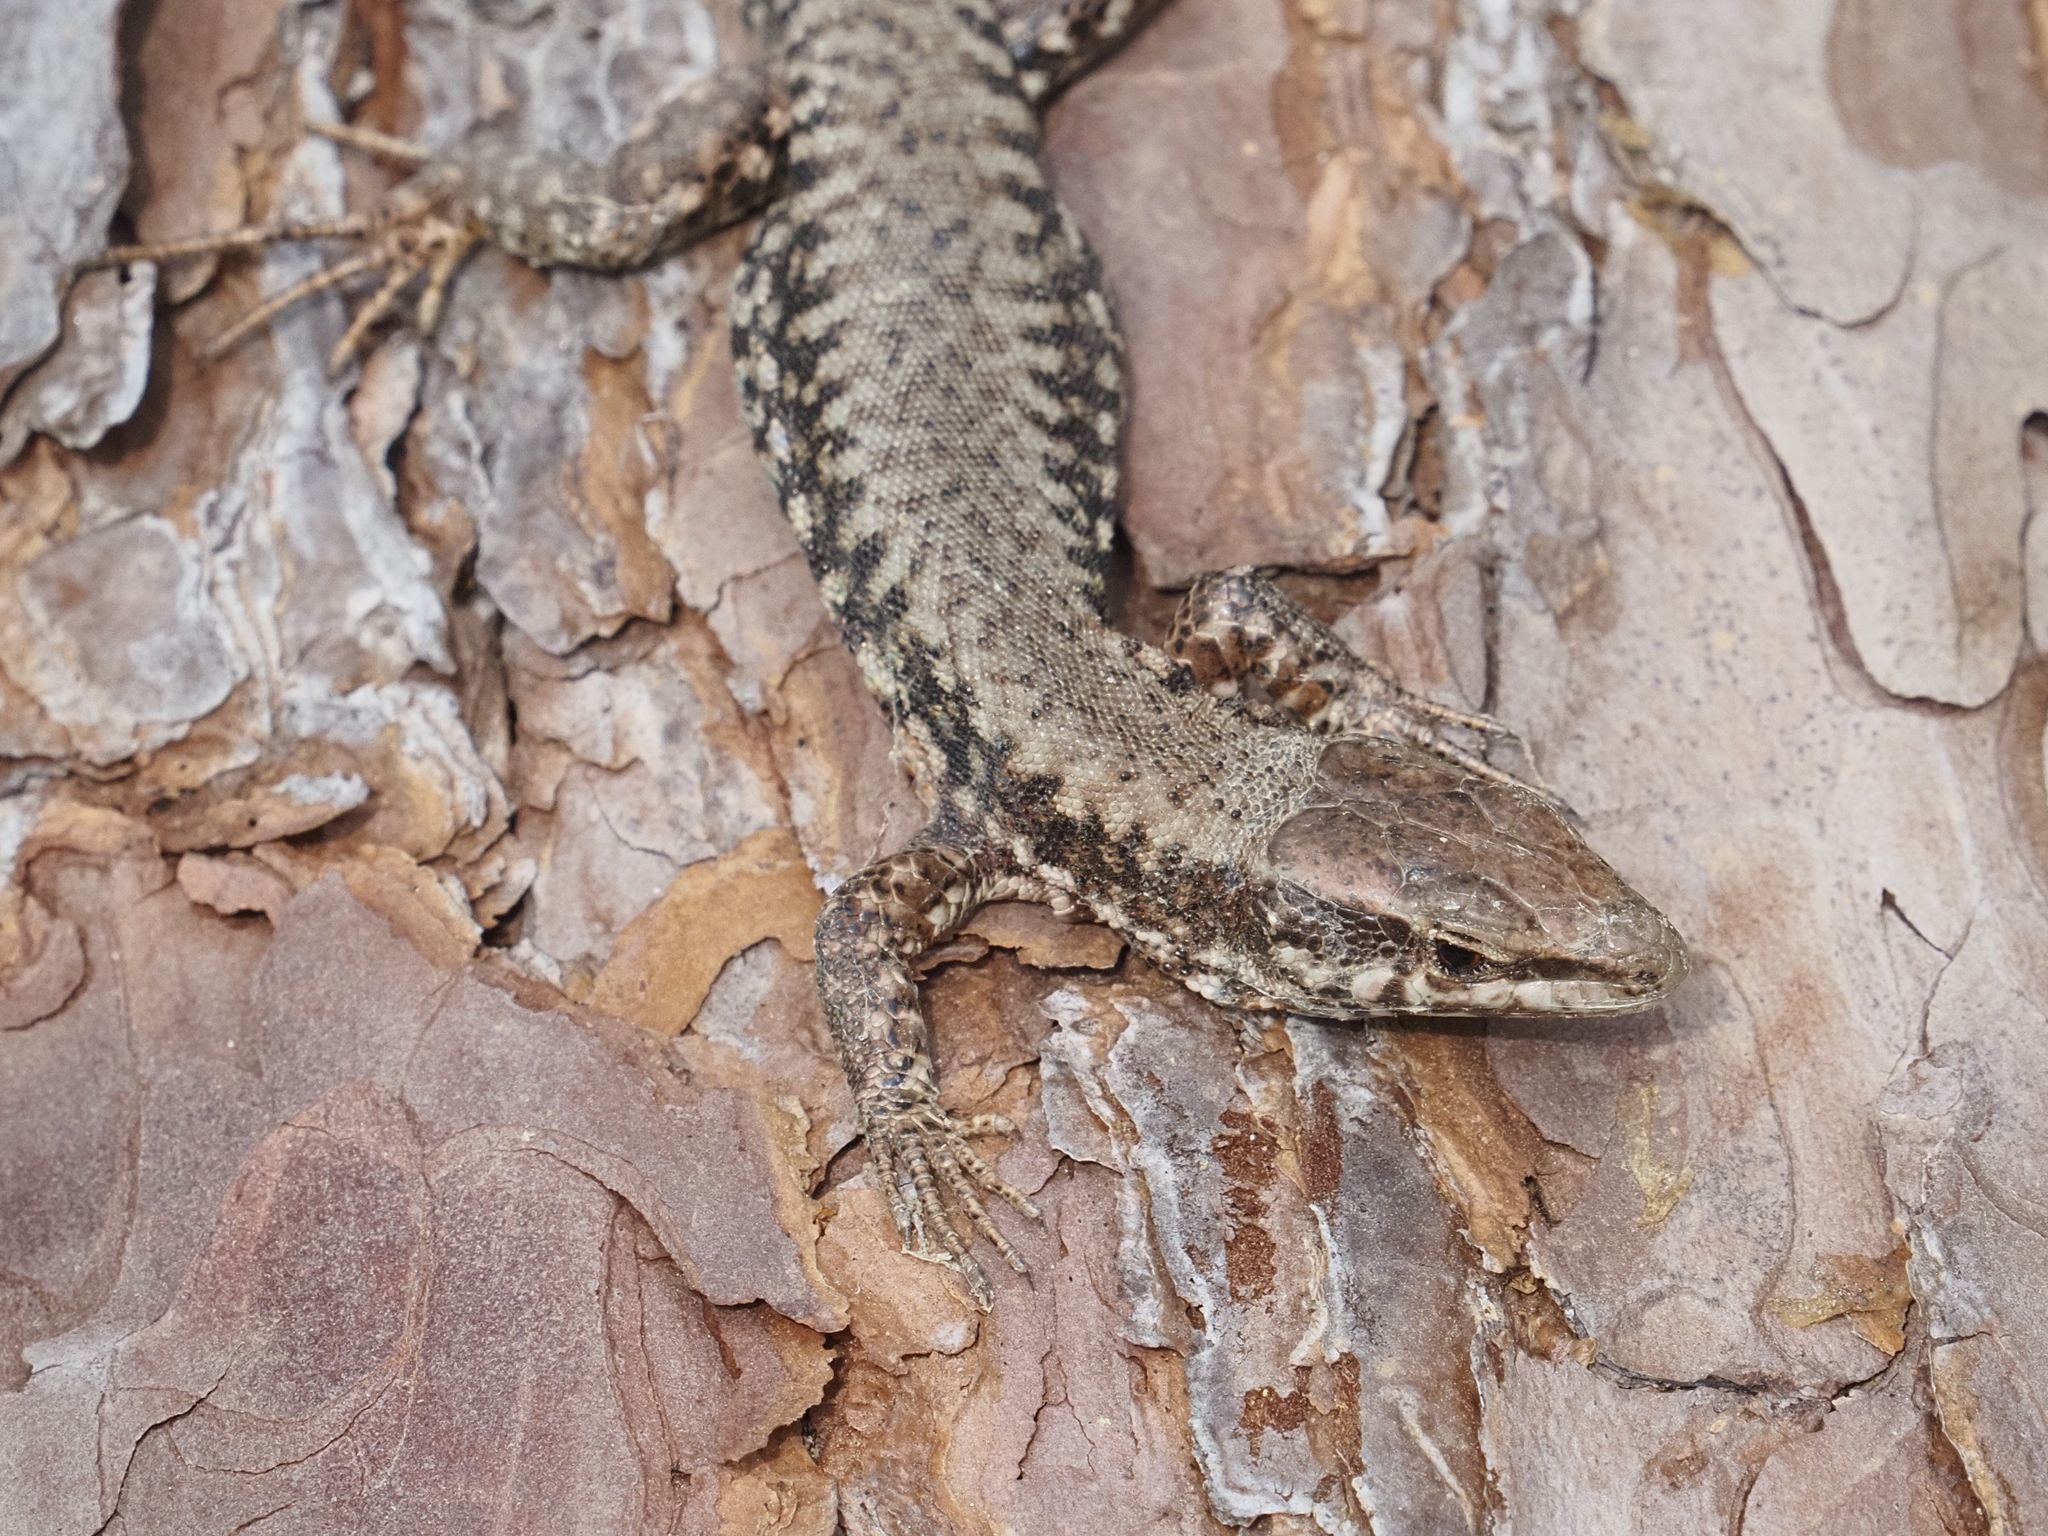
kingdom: Animalia
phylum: Chordata
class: Squamata
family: Lacertidae
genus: Podarcis
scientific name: Podarcis muralis
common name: Common wall lizard
